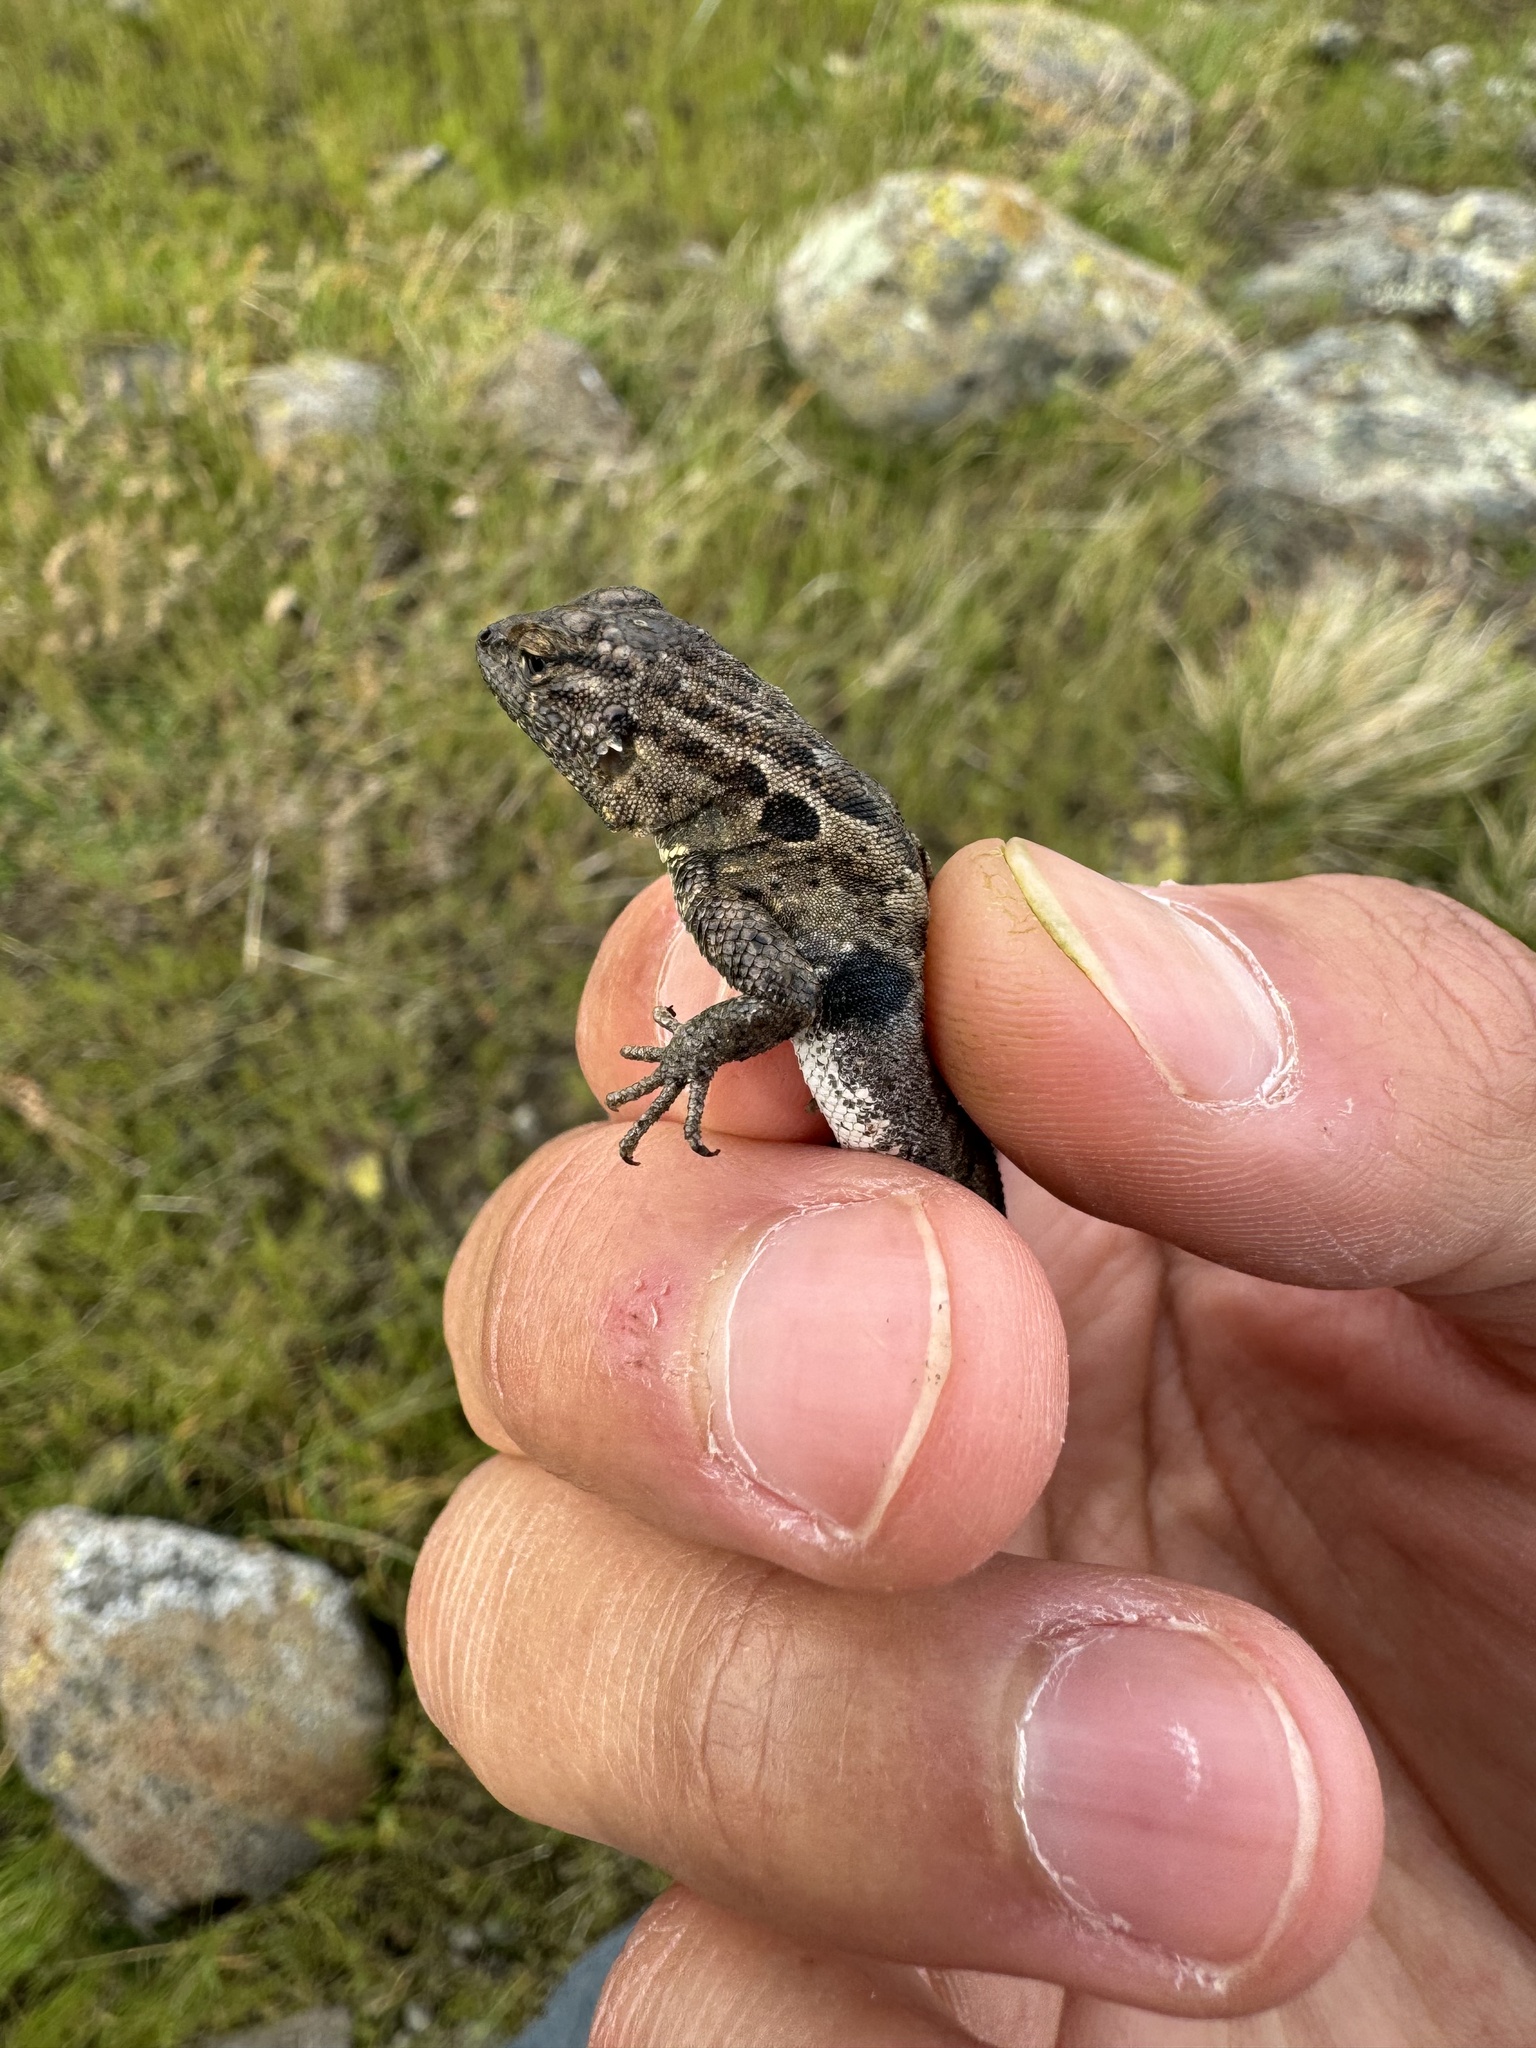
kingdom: Animalia
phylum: Chordata
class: Squamata
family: Phrynosomatidae
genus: Uta
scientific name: Uta stansburiana
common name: Side-blotched lizard
